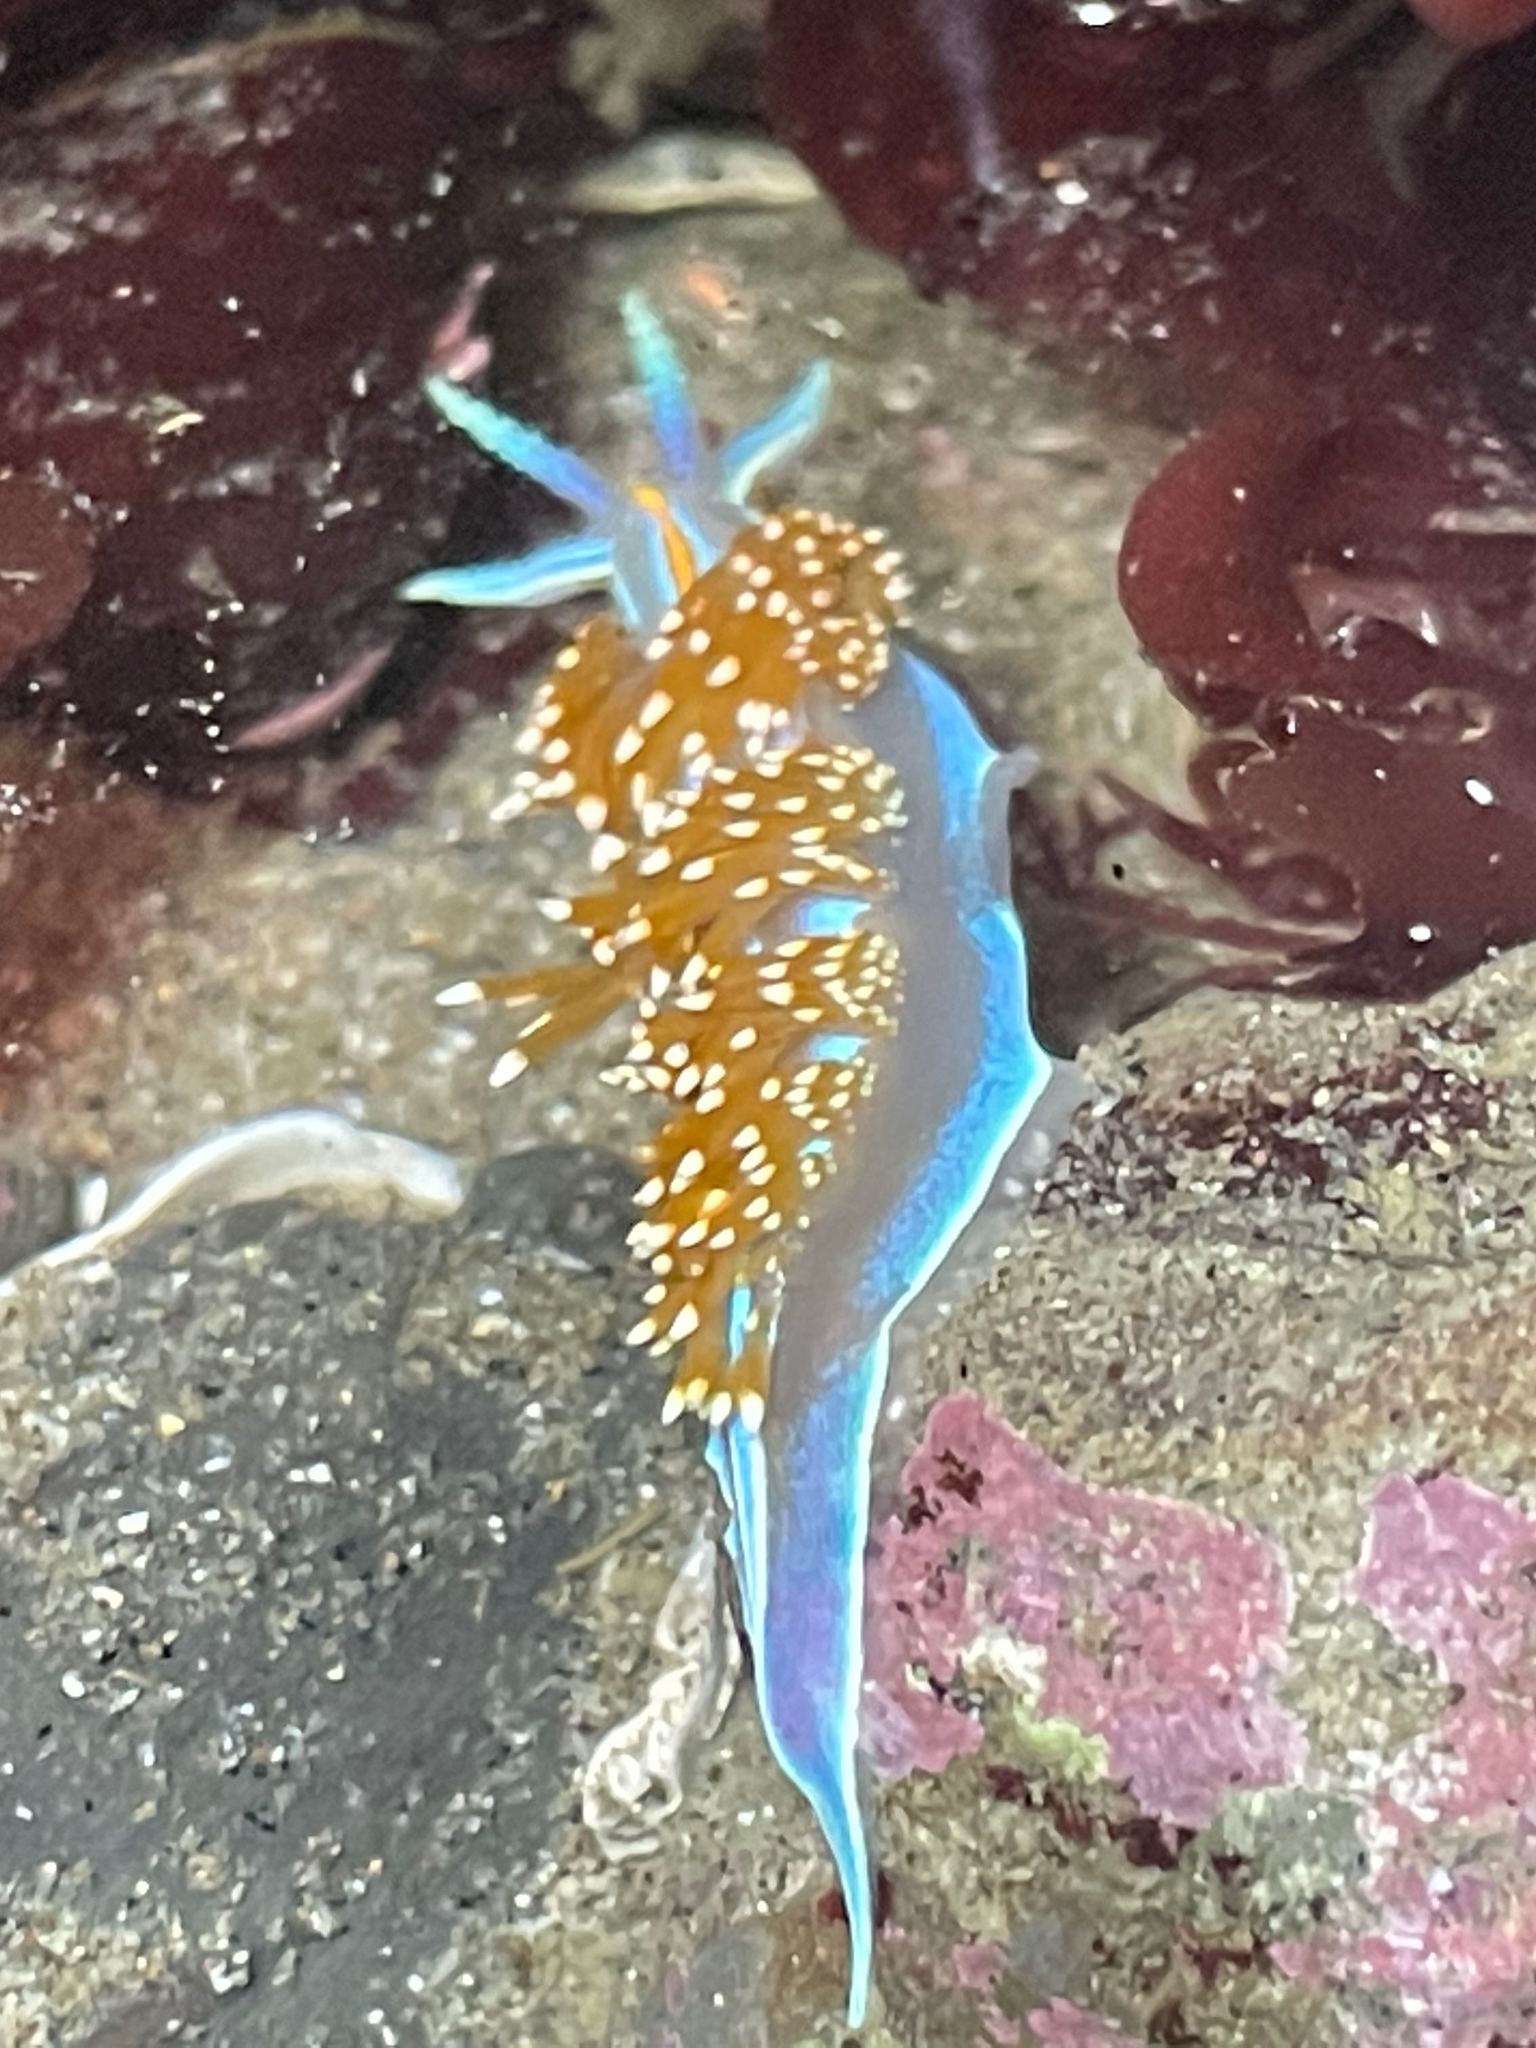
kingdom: Animalia
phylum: Mollusca
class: Gastropoda
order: Nudibranchia
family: Myrrhinidae
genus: Hermissenda
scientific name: Hermissenda opalescens
